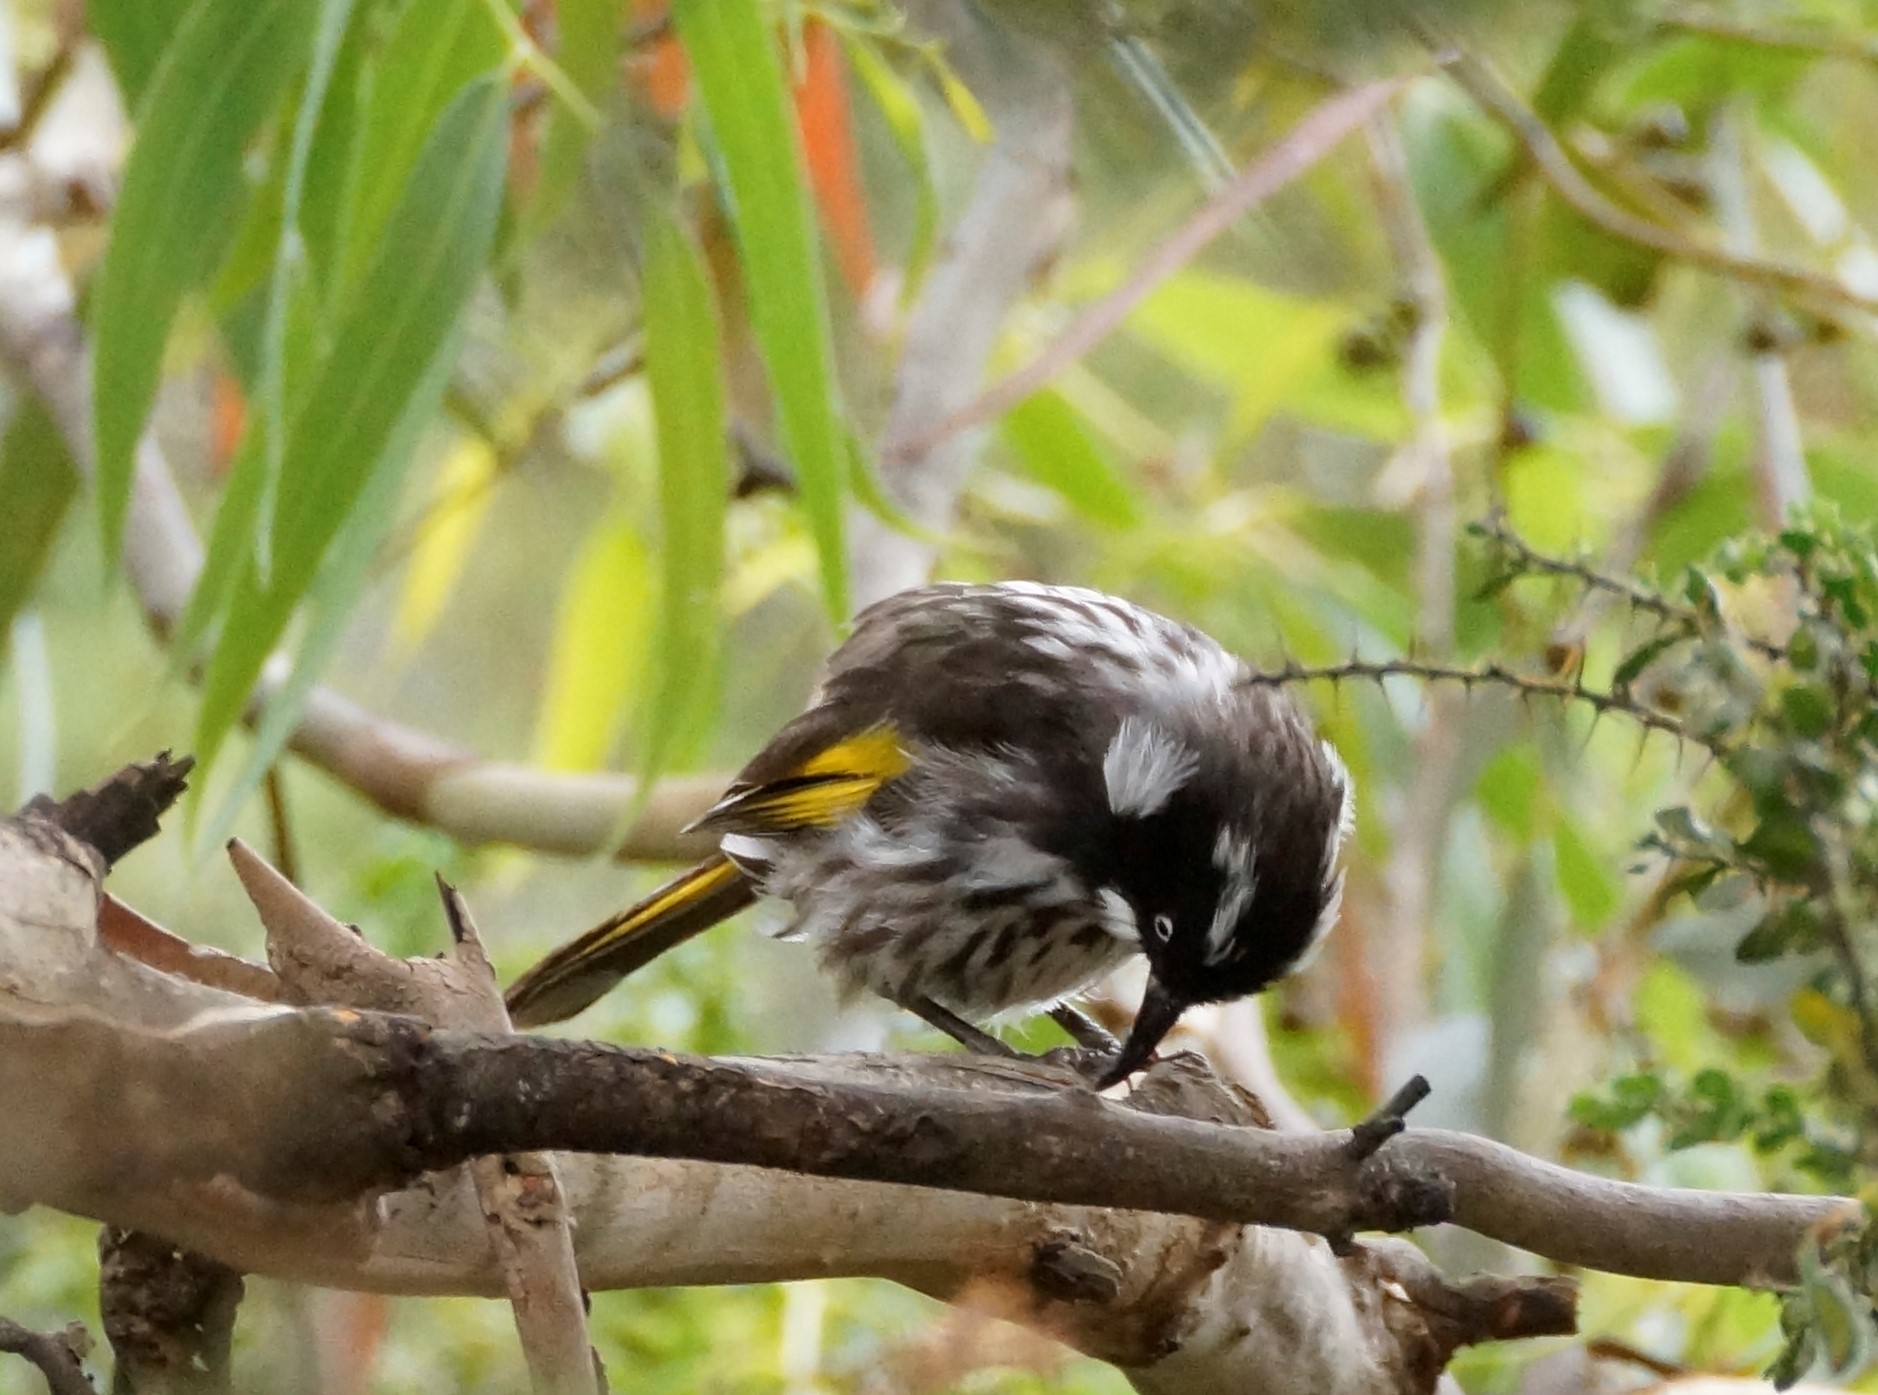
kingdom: Animalia
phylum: Chordata
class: Aves
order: Passeriformes
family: Meliphagidae
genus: Phylidonyris
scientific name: Phylidonyris novaehollandiae
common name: New holland honeyeater
